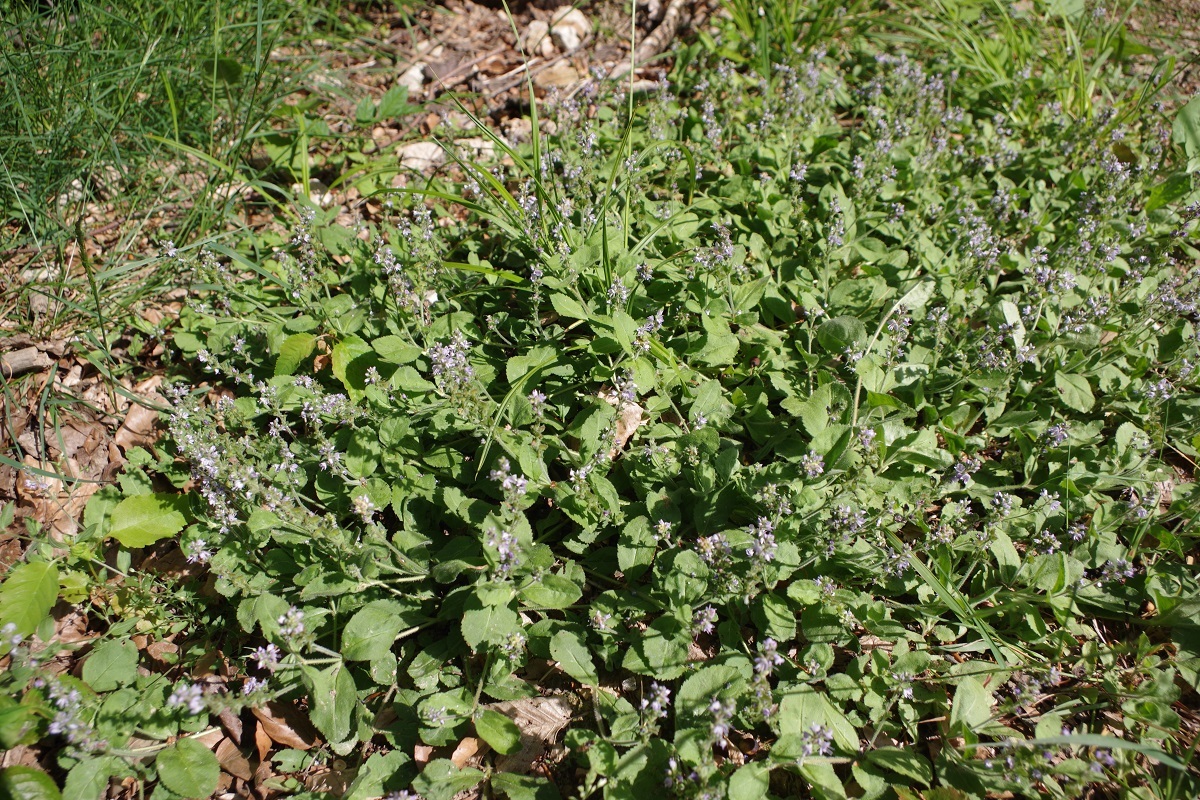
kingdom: Plantae
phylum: Tracheophyta
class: Magnoliopsida
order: Lamiales
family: Plantaginaceae
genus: Veronica
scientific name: Veronica officinalis
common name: Common speedwell
